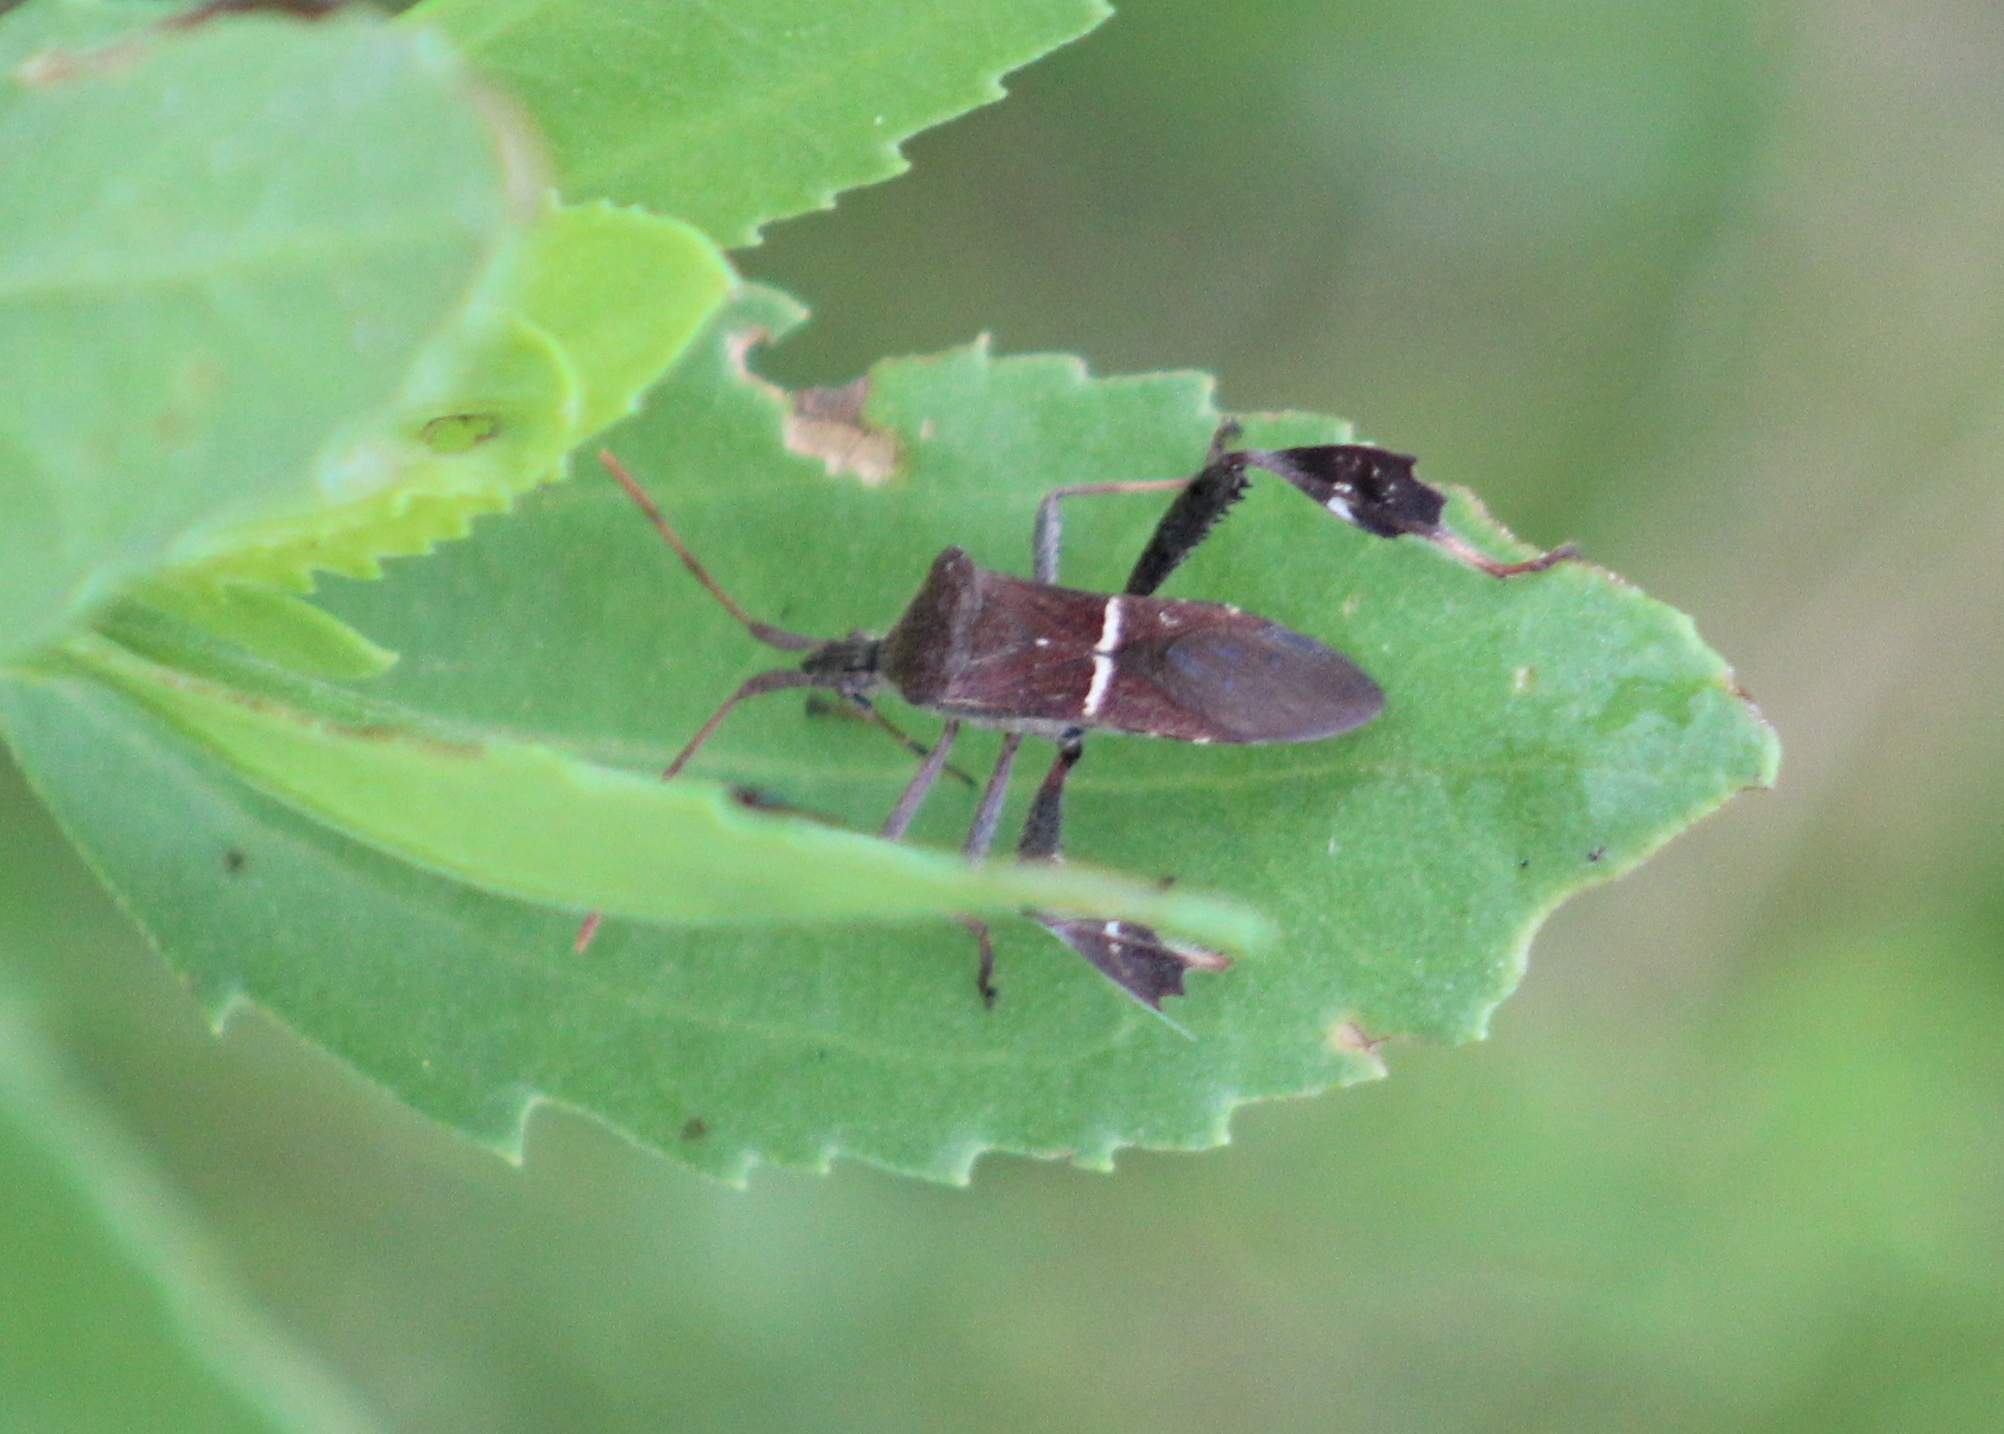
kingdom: Animalia
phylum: Arthropoda
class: Insecta
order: Hemiptera
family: Coreidae
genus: Leptoglossus
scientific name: Leptoglossus phyllopus
